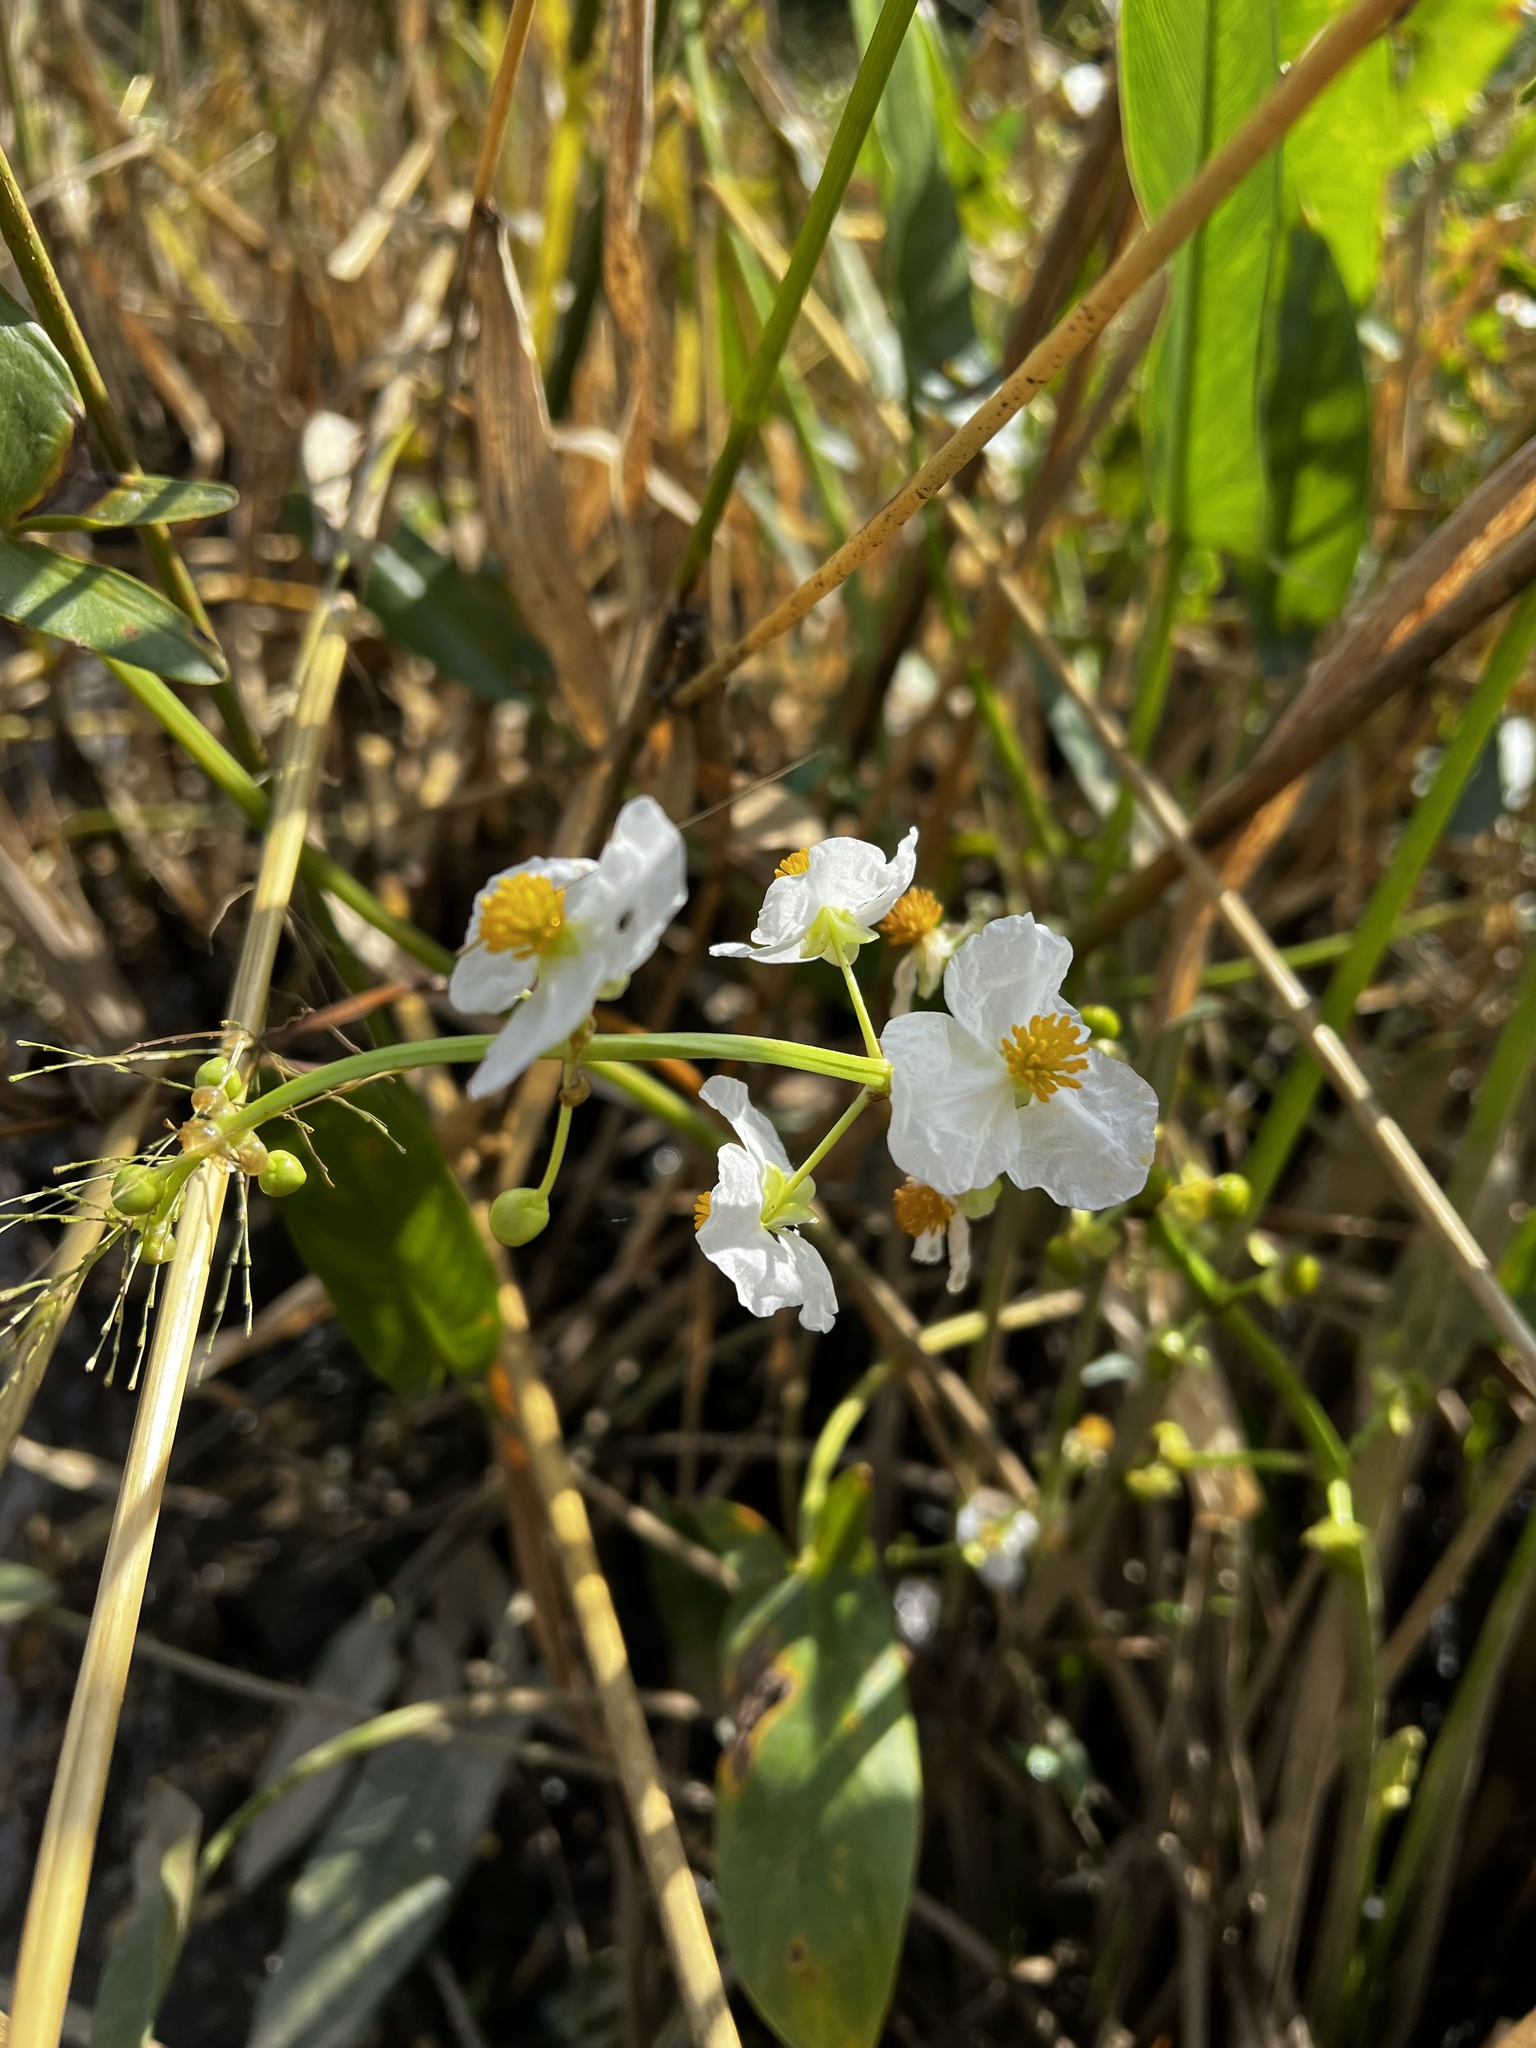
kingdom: Plantae
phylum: Tracheophyta
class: Liliopsida
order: Alismatales
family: Alismataceae
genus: Sagittaria
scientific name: Sagittaria latifolia
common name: Duck-potato
